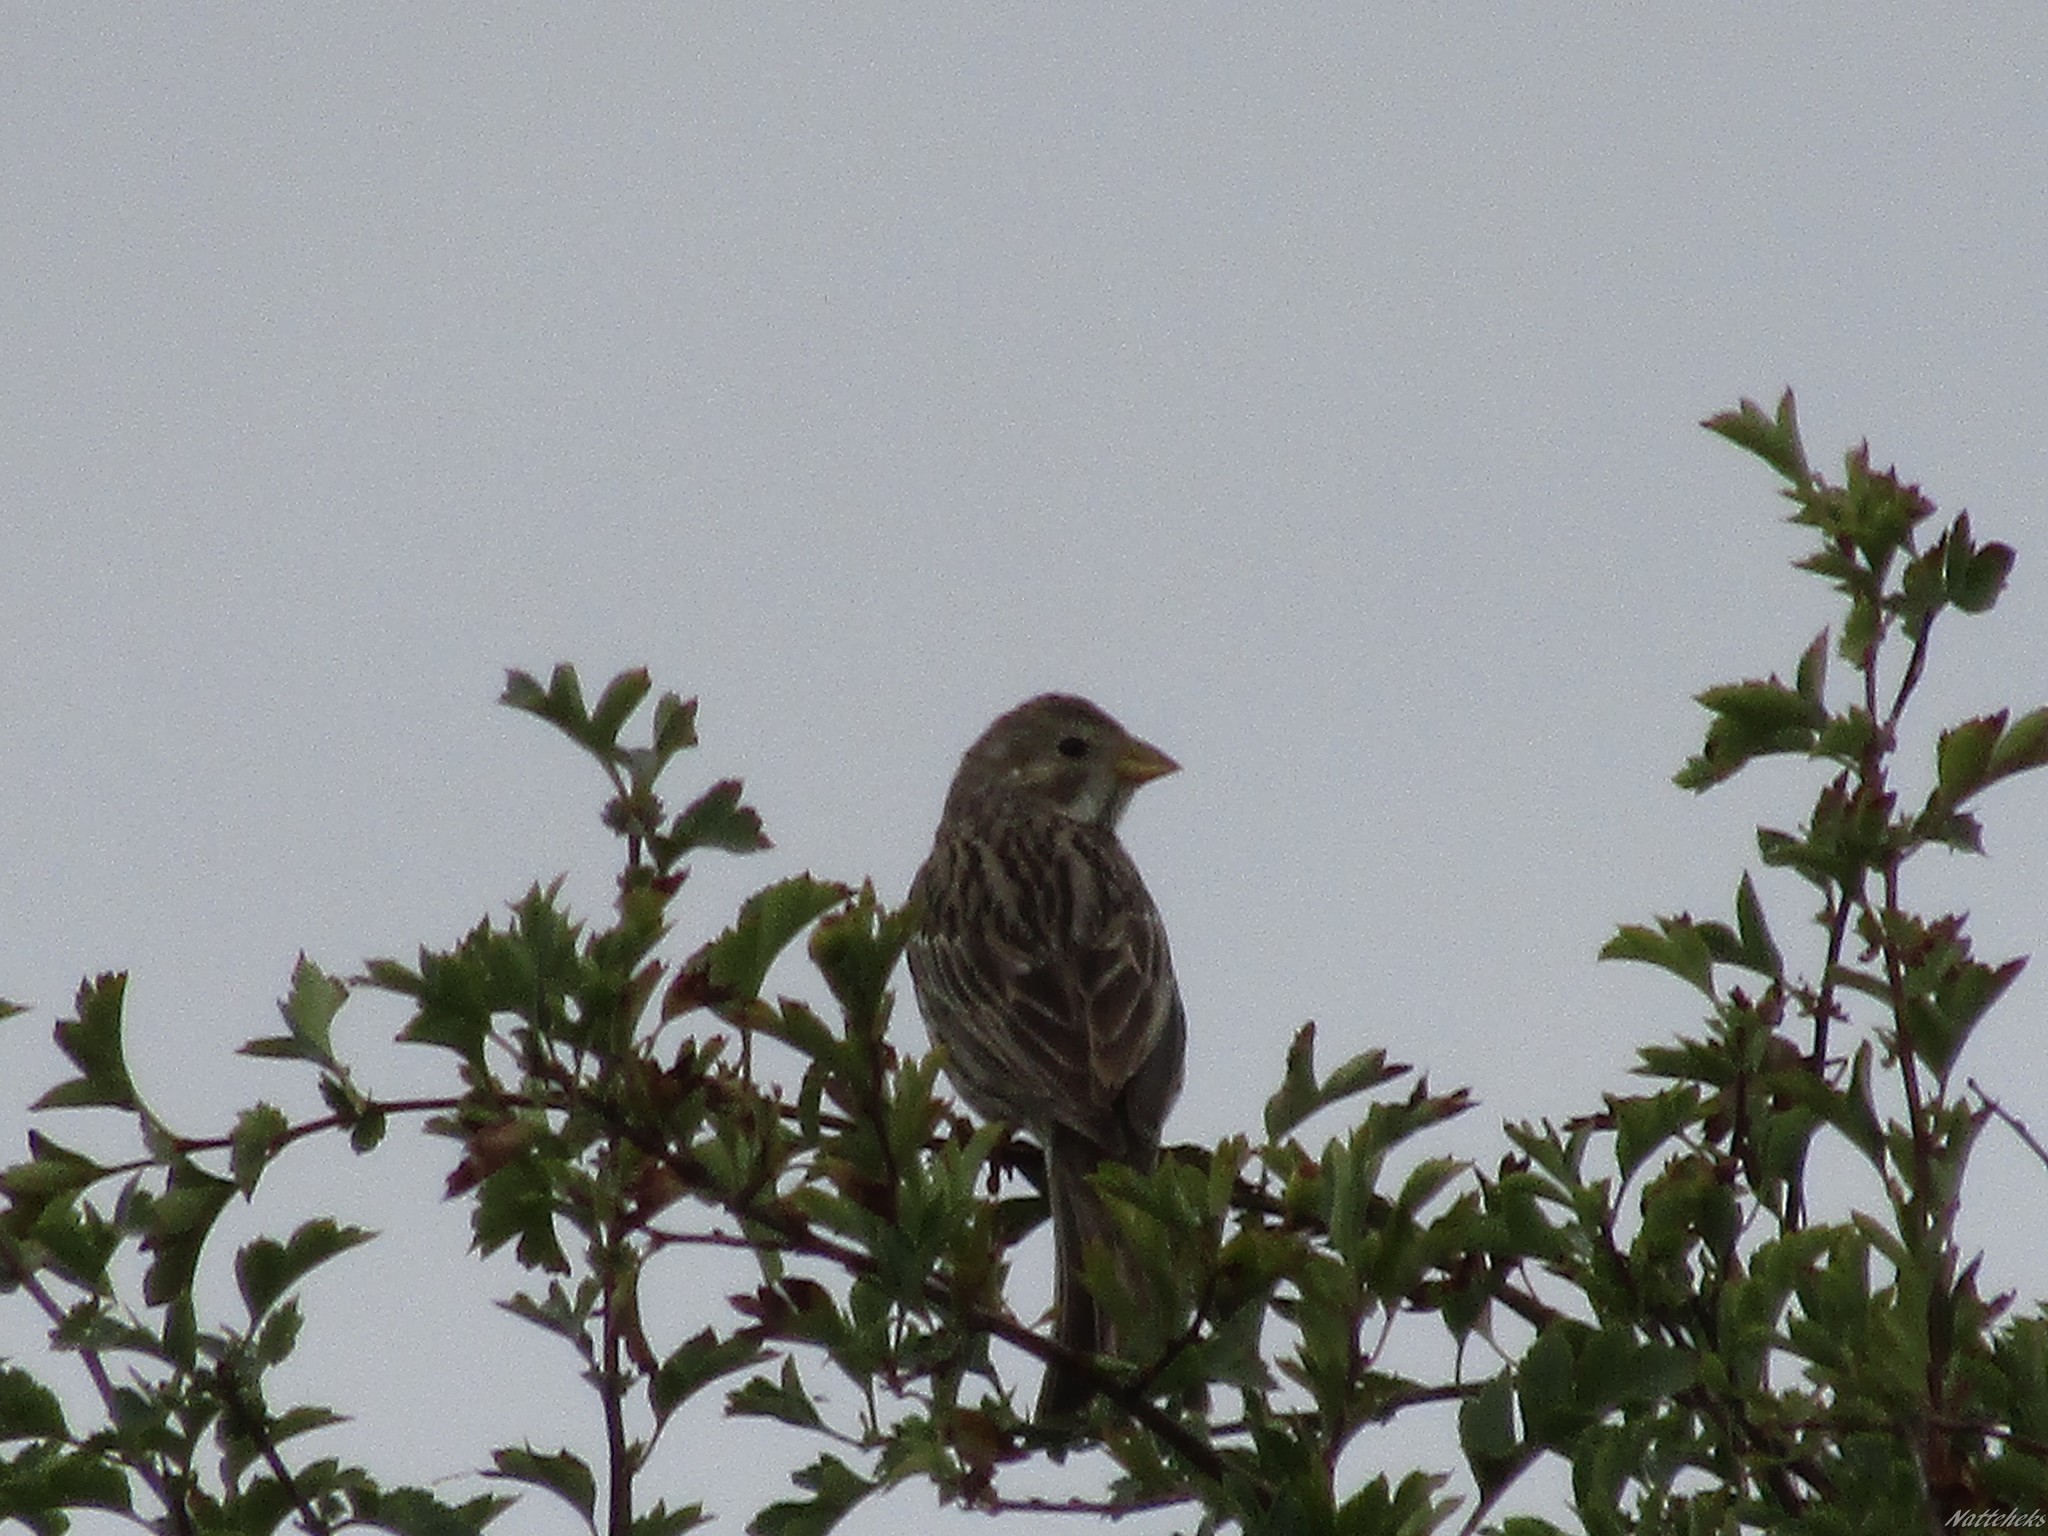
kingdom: Animalia
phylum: Chordata
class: Aves
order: Passeriformes
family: Emberizidae
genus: Emberiza
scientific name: Emberiza calandra
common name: Corn bunting
